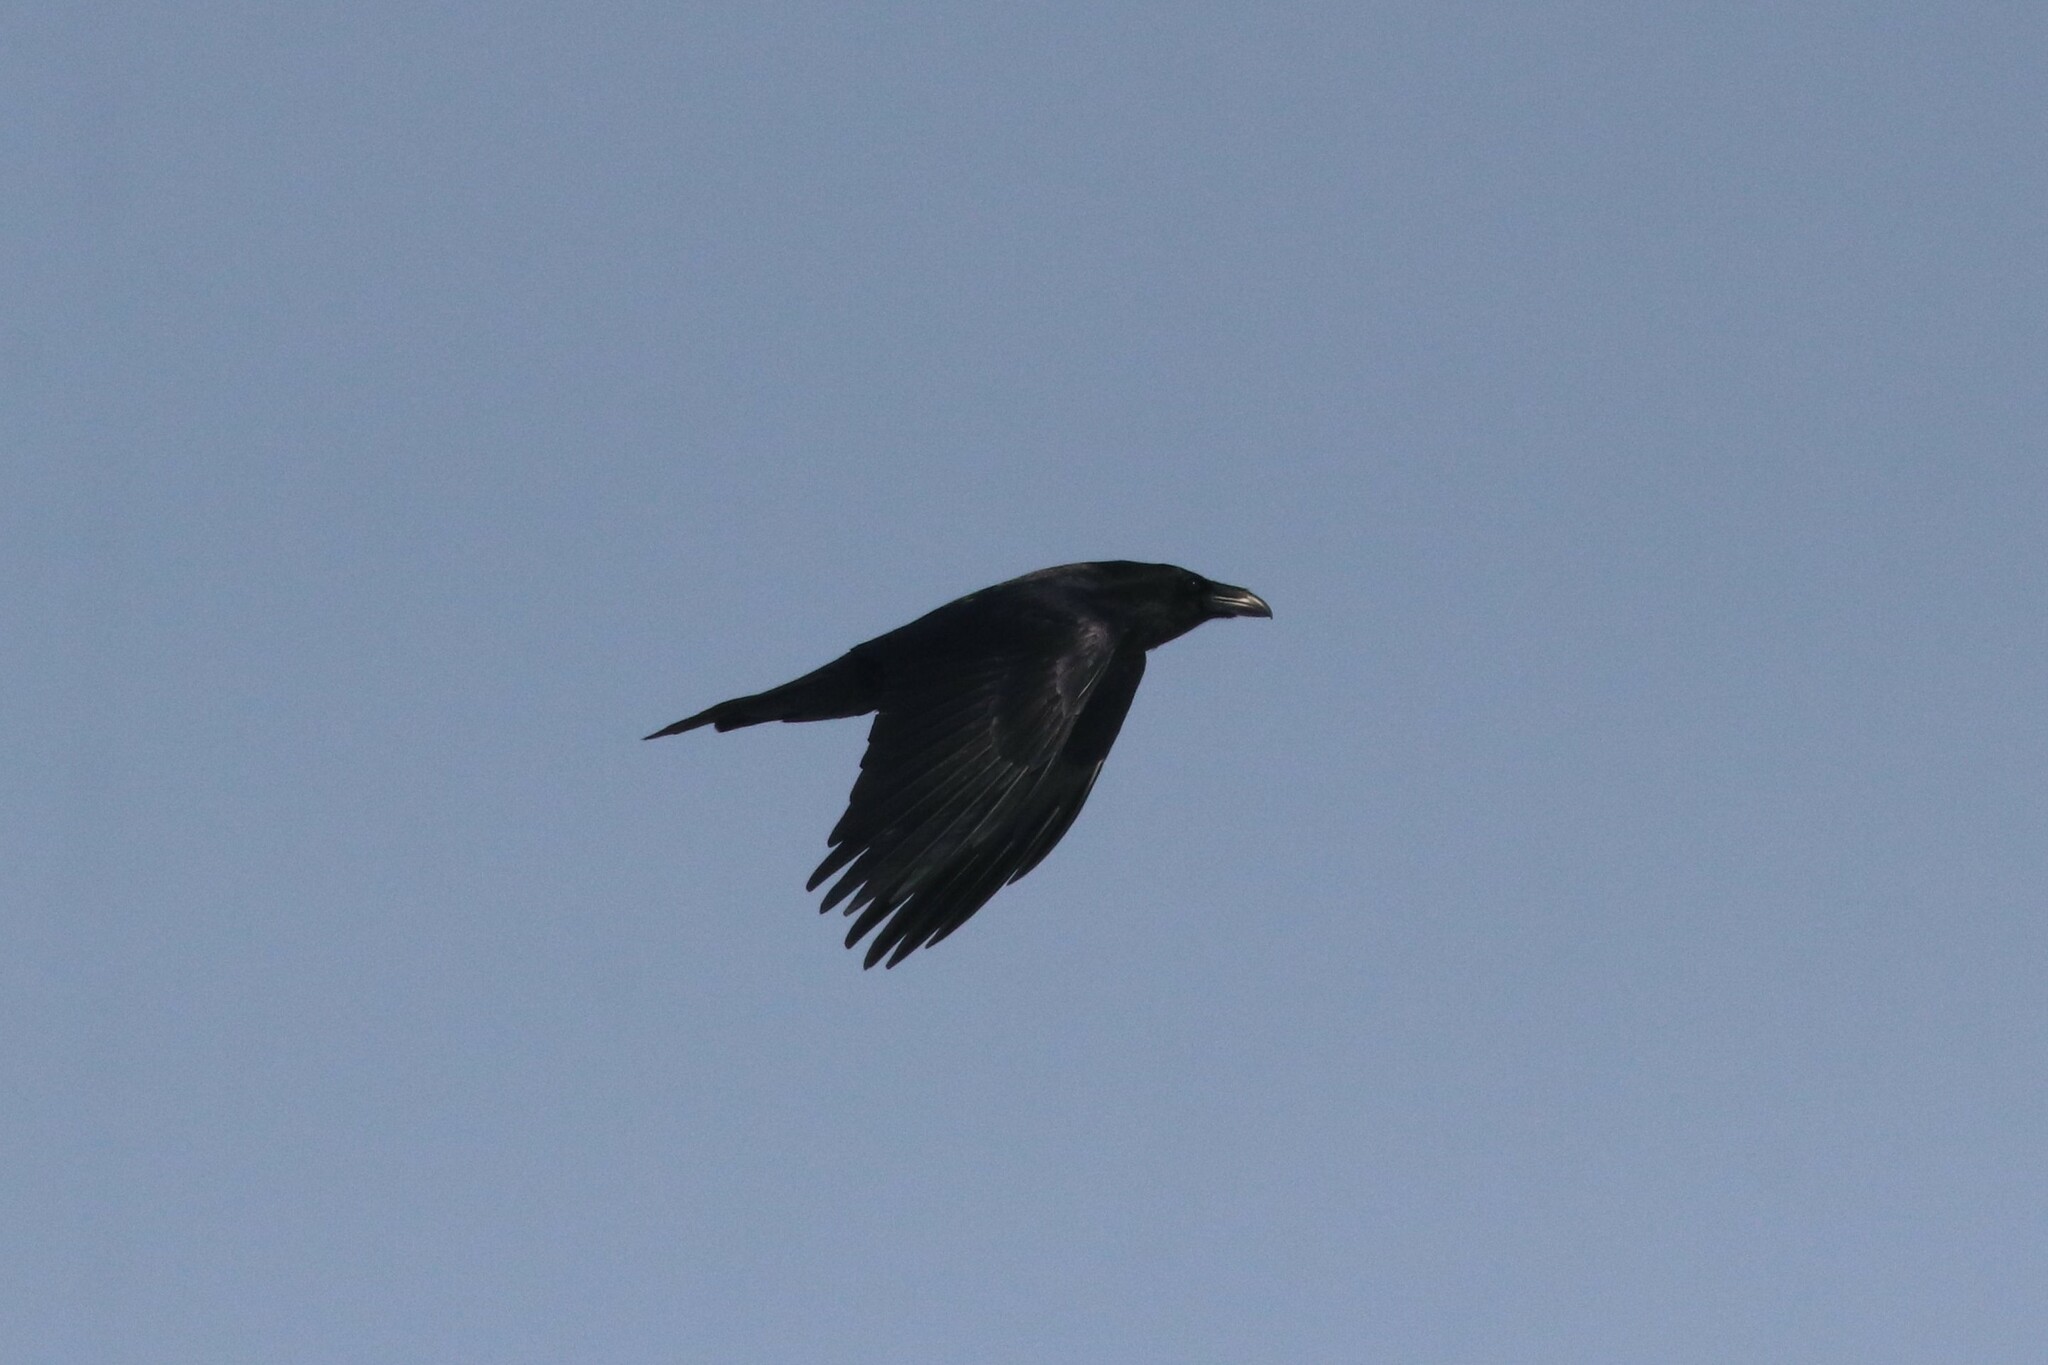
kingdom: Animalia
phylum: Chordata
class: Aves
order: Passeriformes
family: Corvidae
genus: Corvus
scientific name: Corvus corax
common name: Common raven
